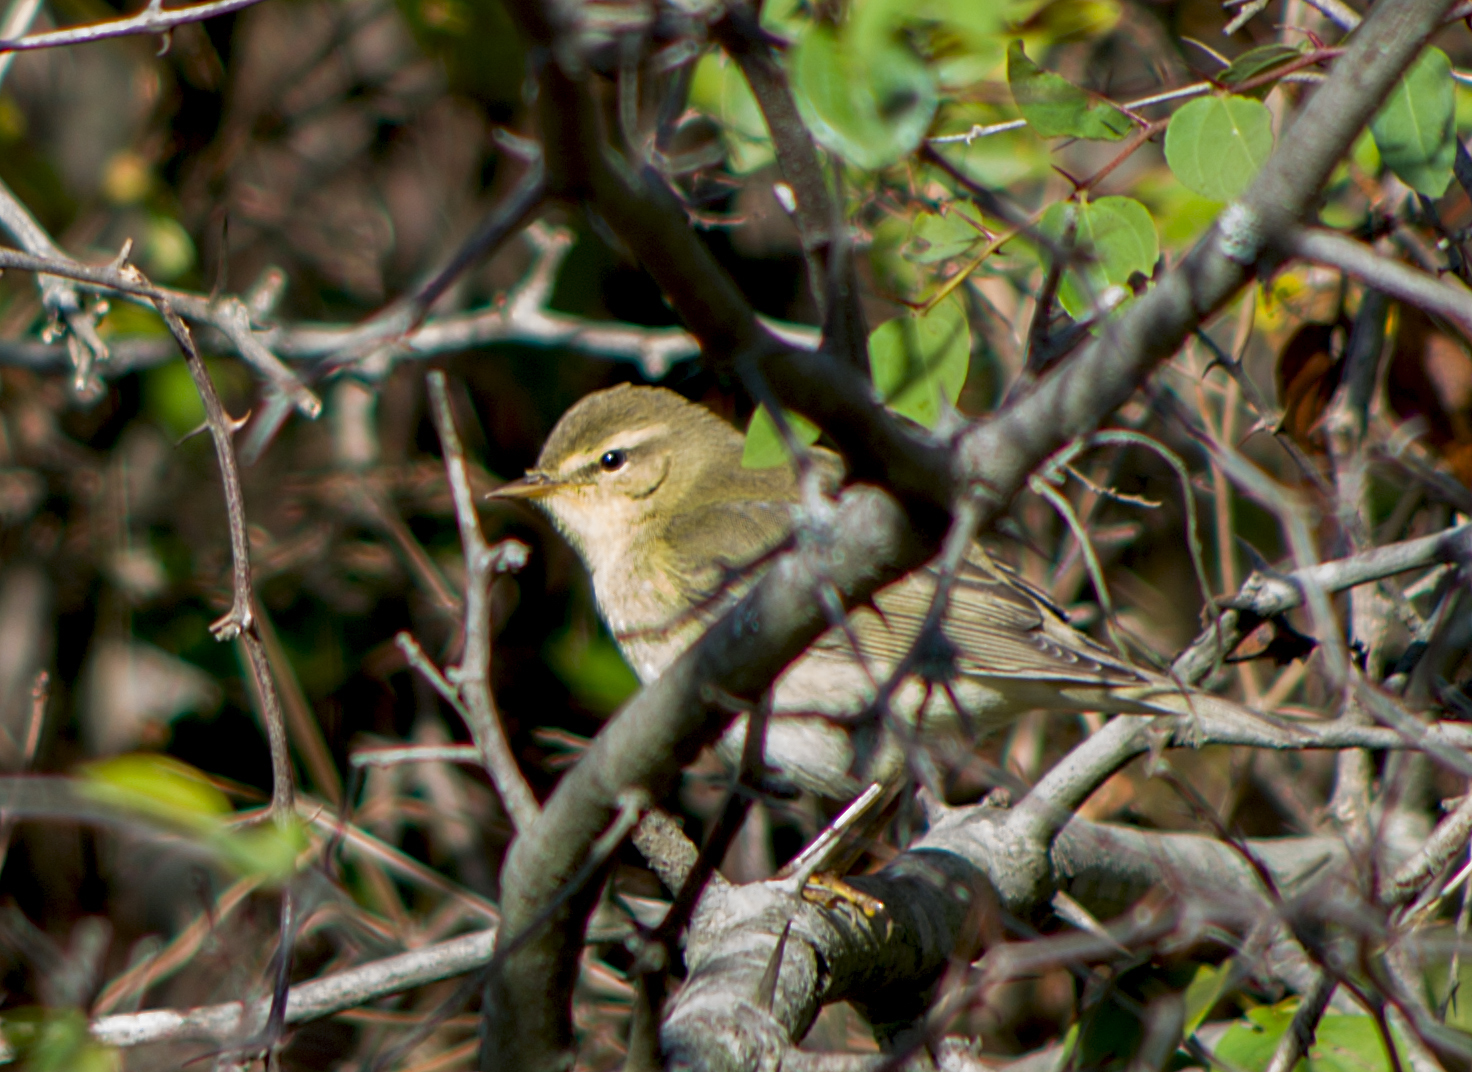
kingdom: Animalia
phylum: Chordata
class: Aves
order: Passeriformes
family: Phylloscopidae
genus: Phylloscopus
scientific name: Phylloscopus trochilus
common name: Willow warbler
